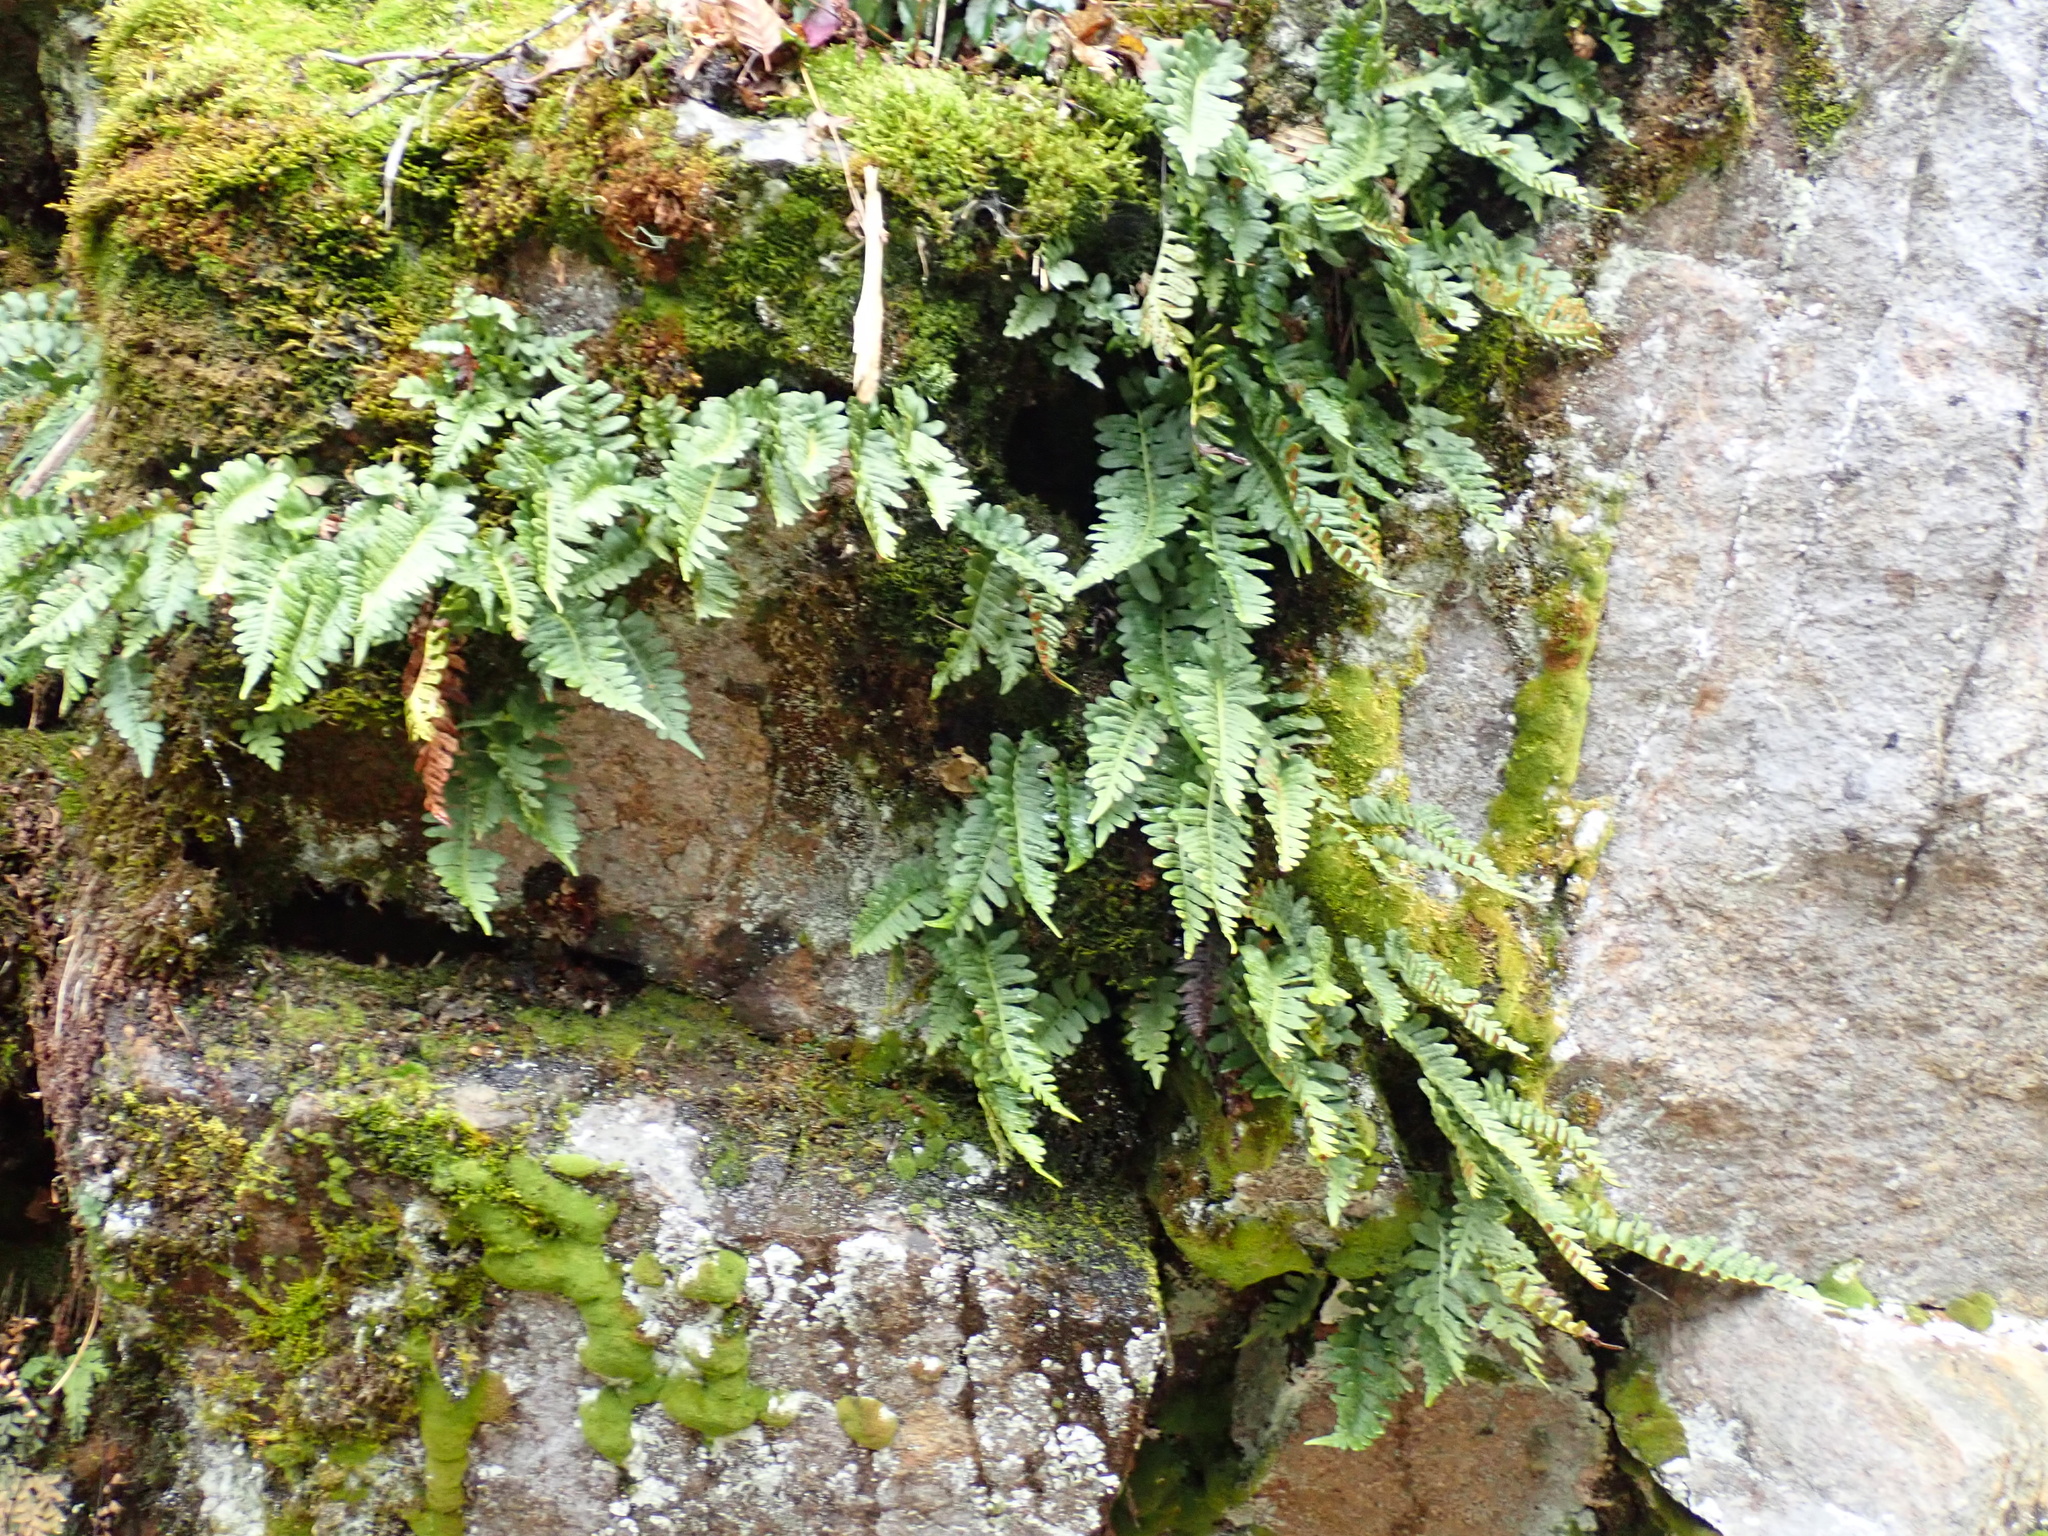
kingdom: Plantae
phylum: Tracheophyta
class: Polypodiopsida
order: Polypodiales
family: Polypodiaceae
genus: Polypodium
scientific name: Polypodium glycyrrhiza
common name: Licorice fern
